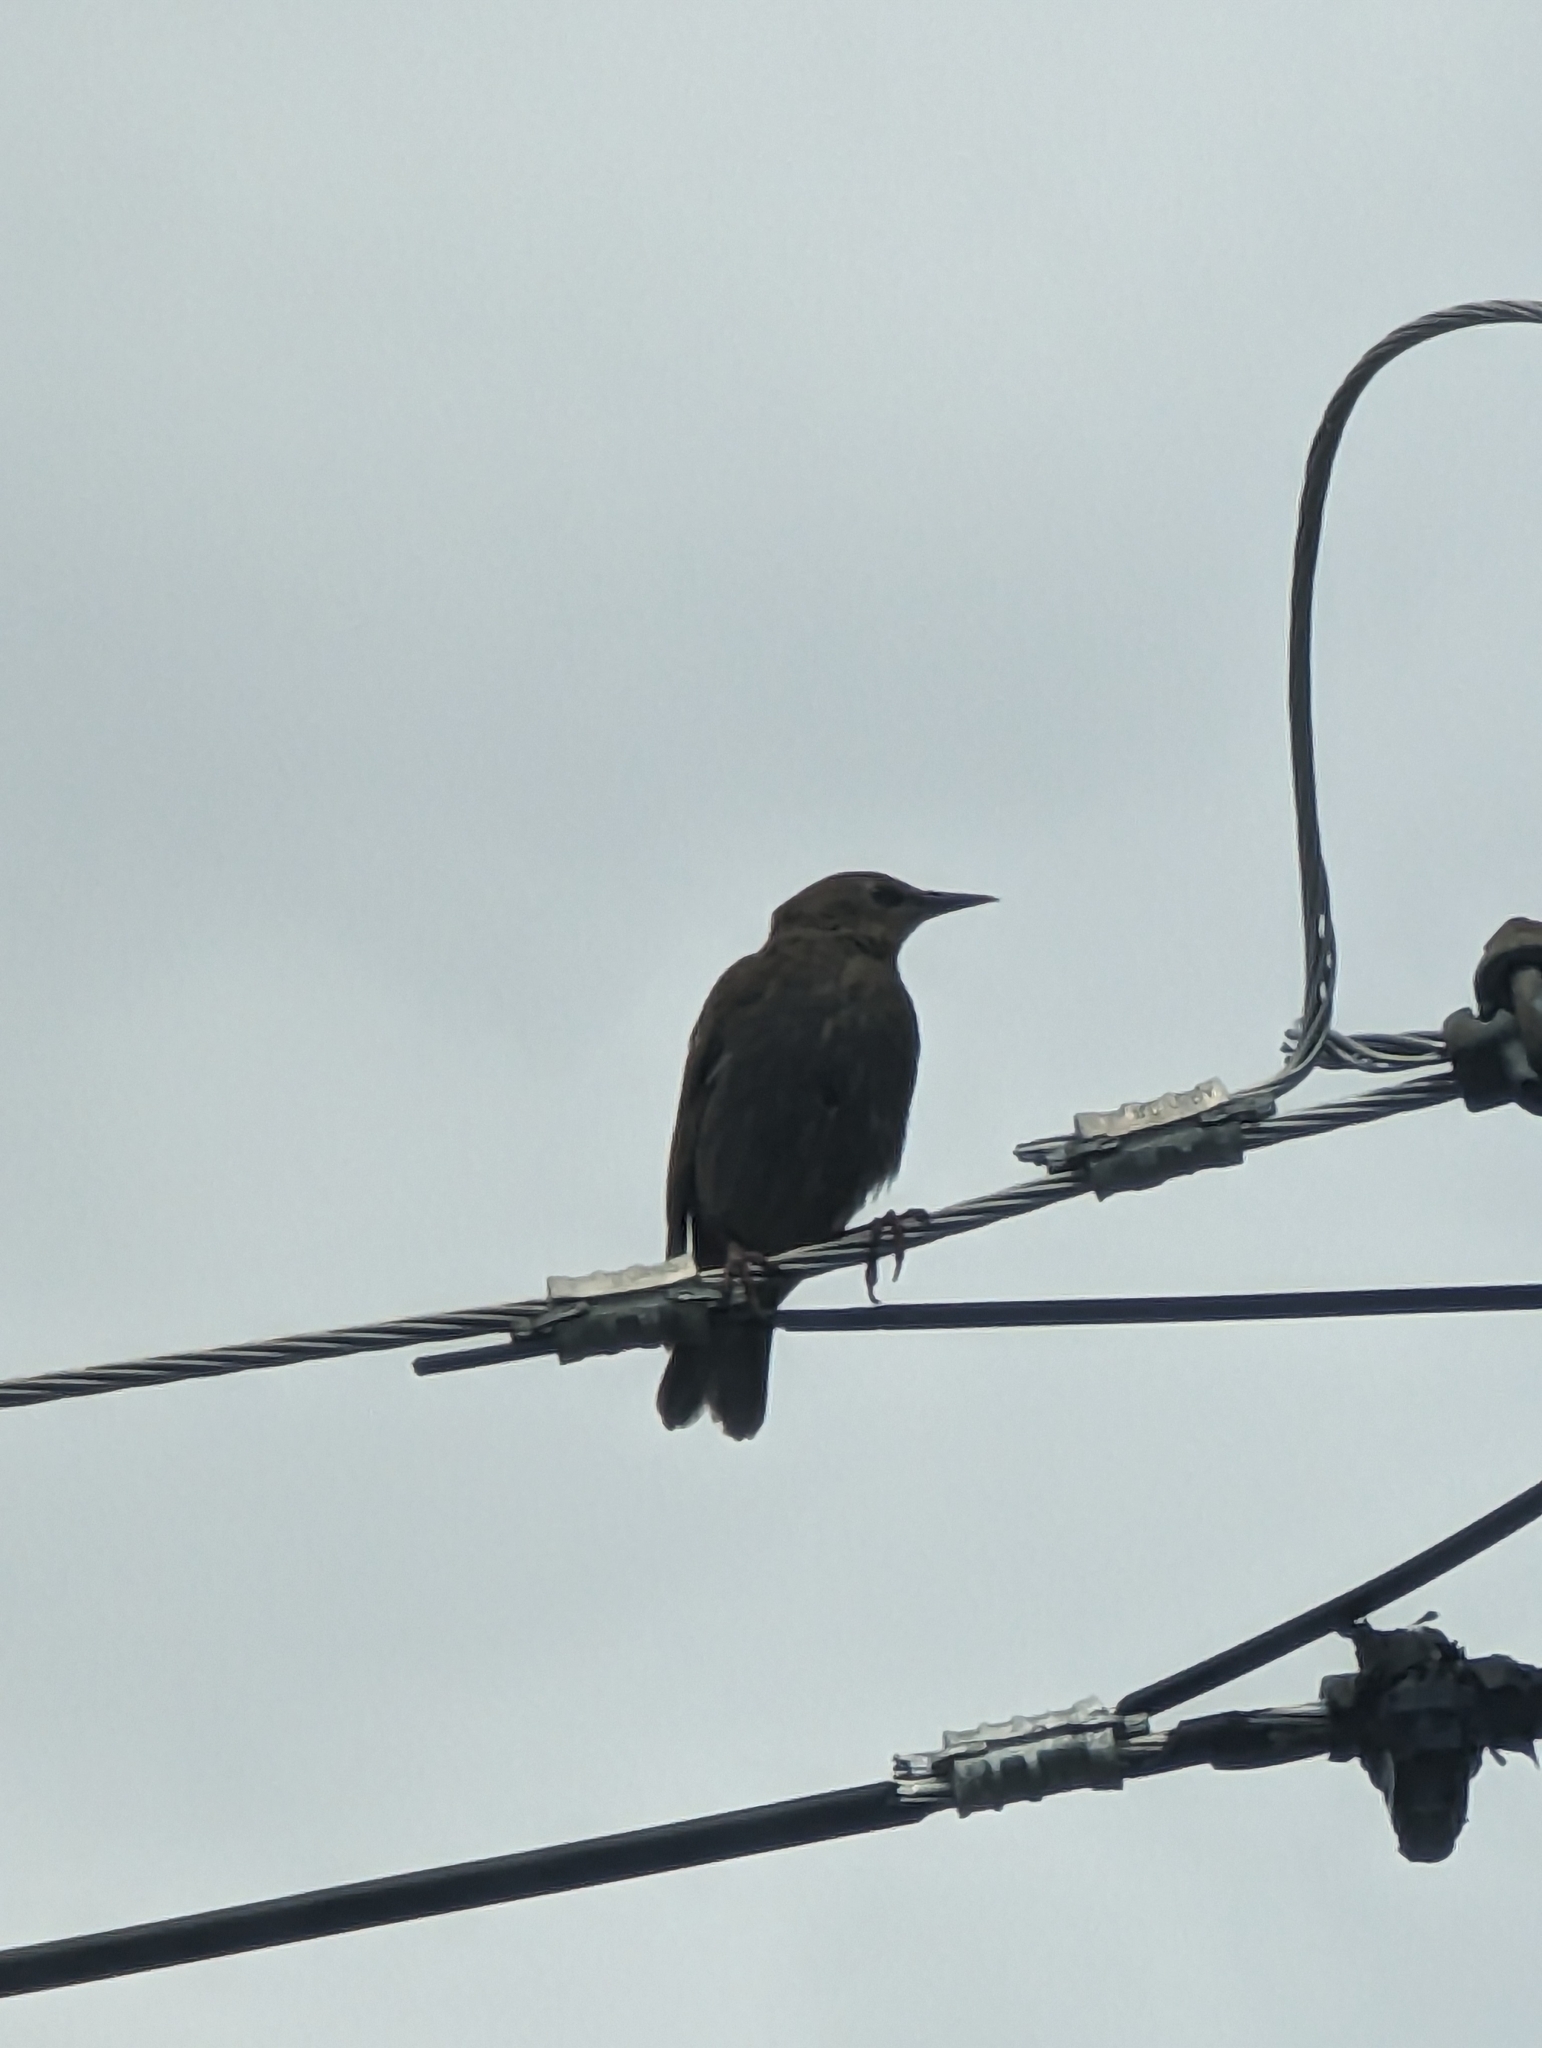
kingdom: Animalia
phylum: Chordata
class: Aves
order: Passeriformes
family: Sturnidae
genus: Sturnus
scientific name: Sturnus vulgaris
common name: Common starling
